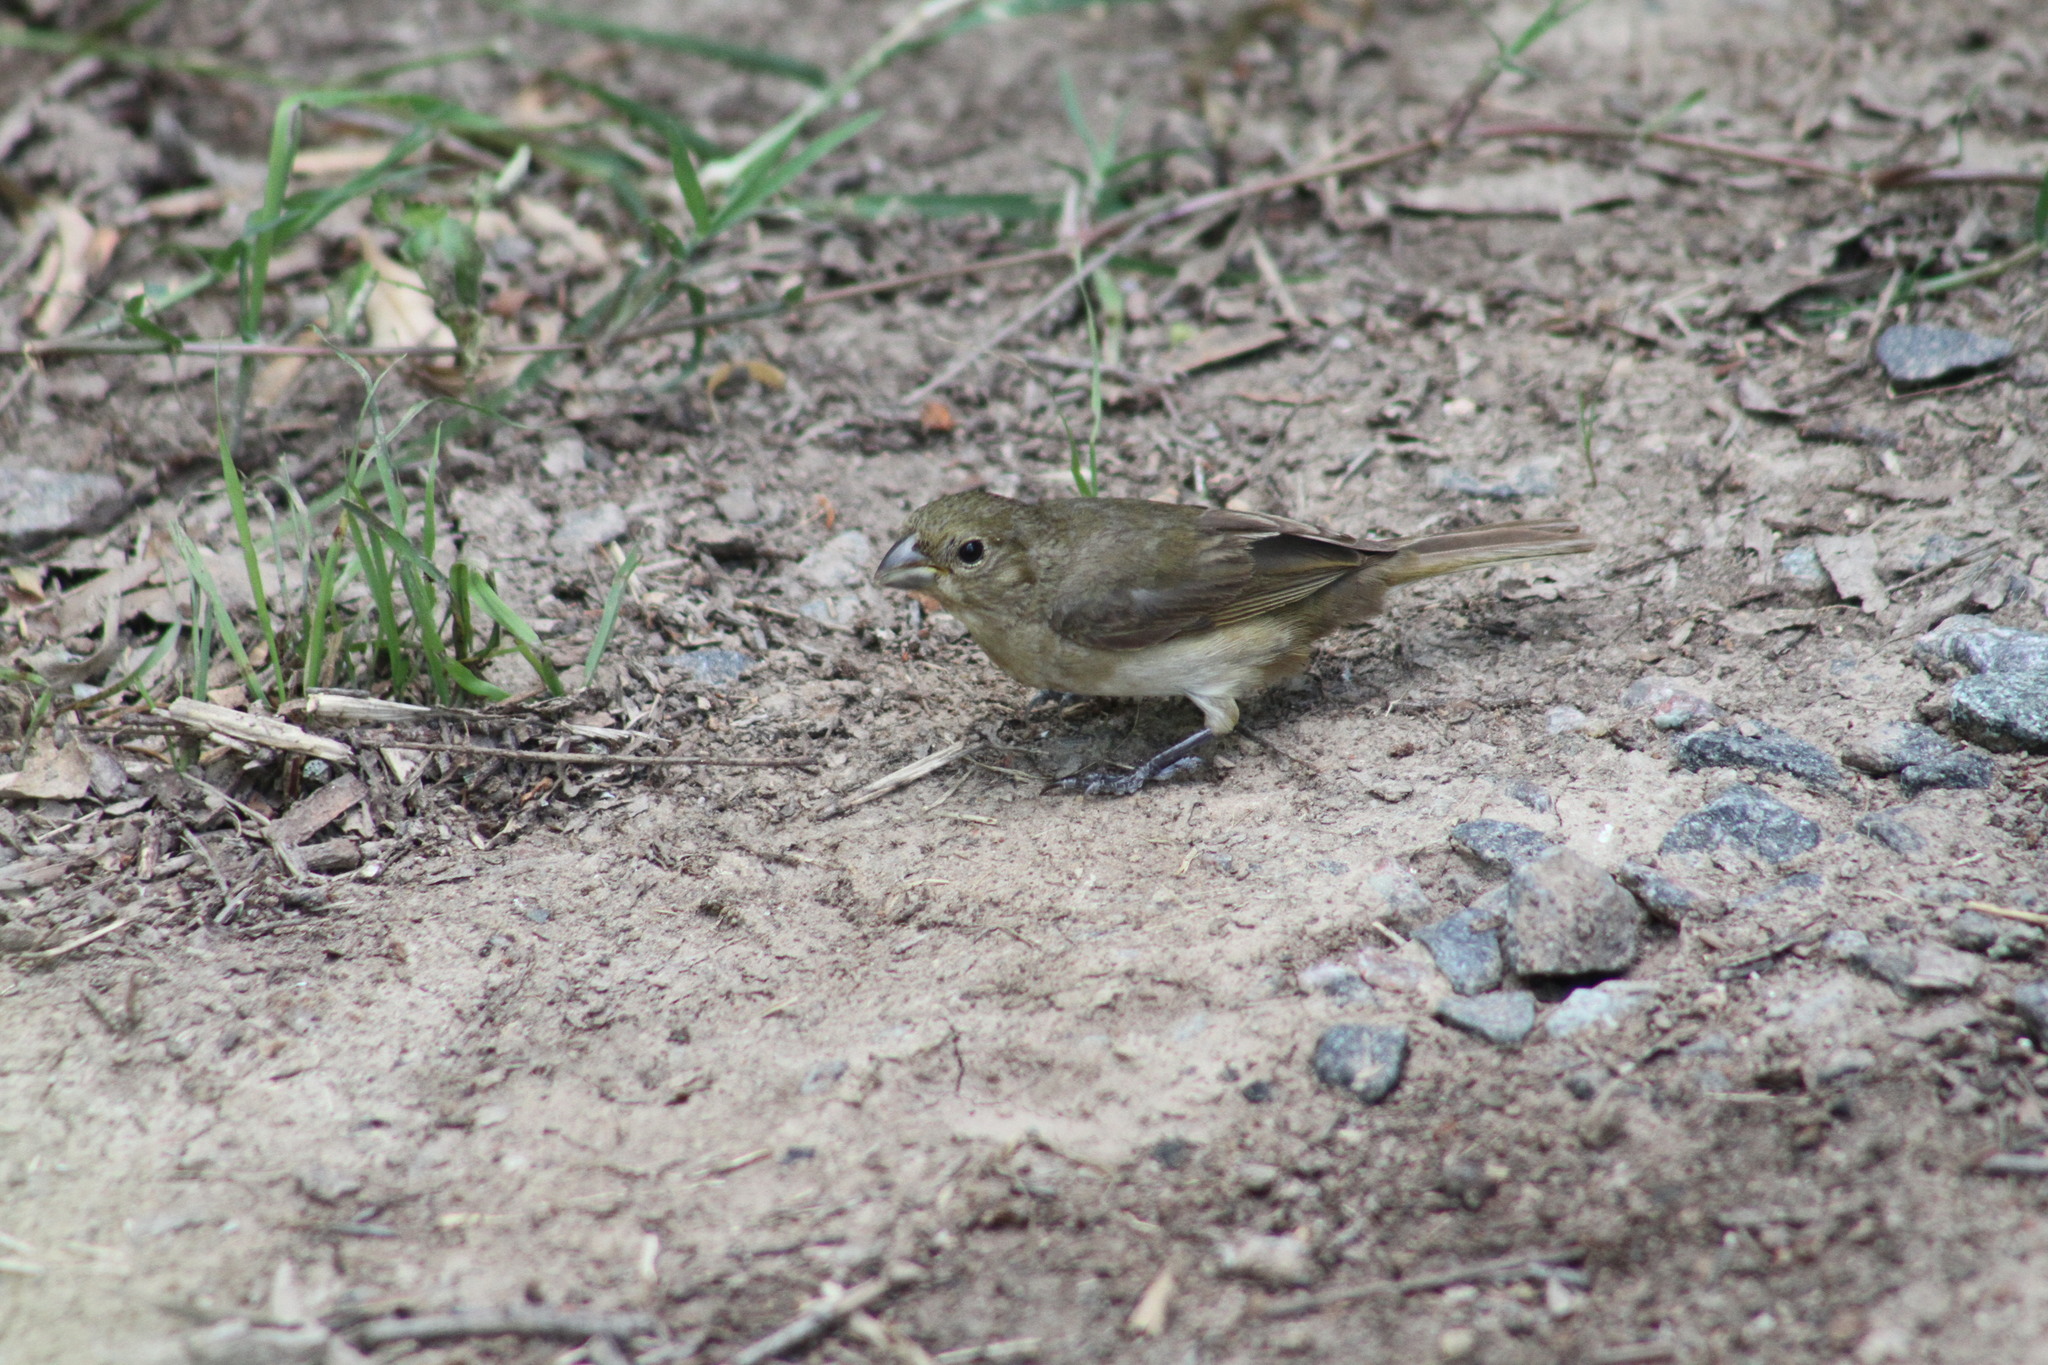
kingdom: Animalia
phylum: Chordata
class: Aves
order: Passeriformes
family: Thraupidae
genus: Sporophila
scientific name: Sporophila caerulescens
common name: Double-collared seedeater
